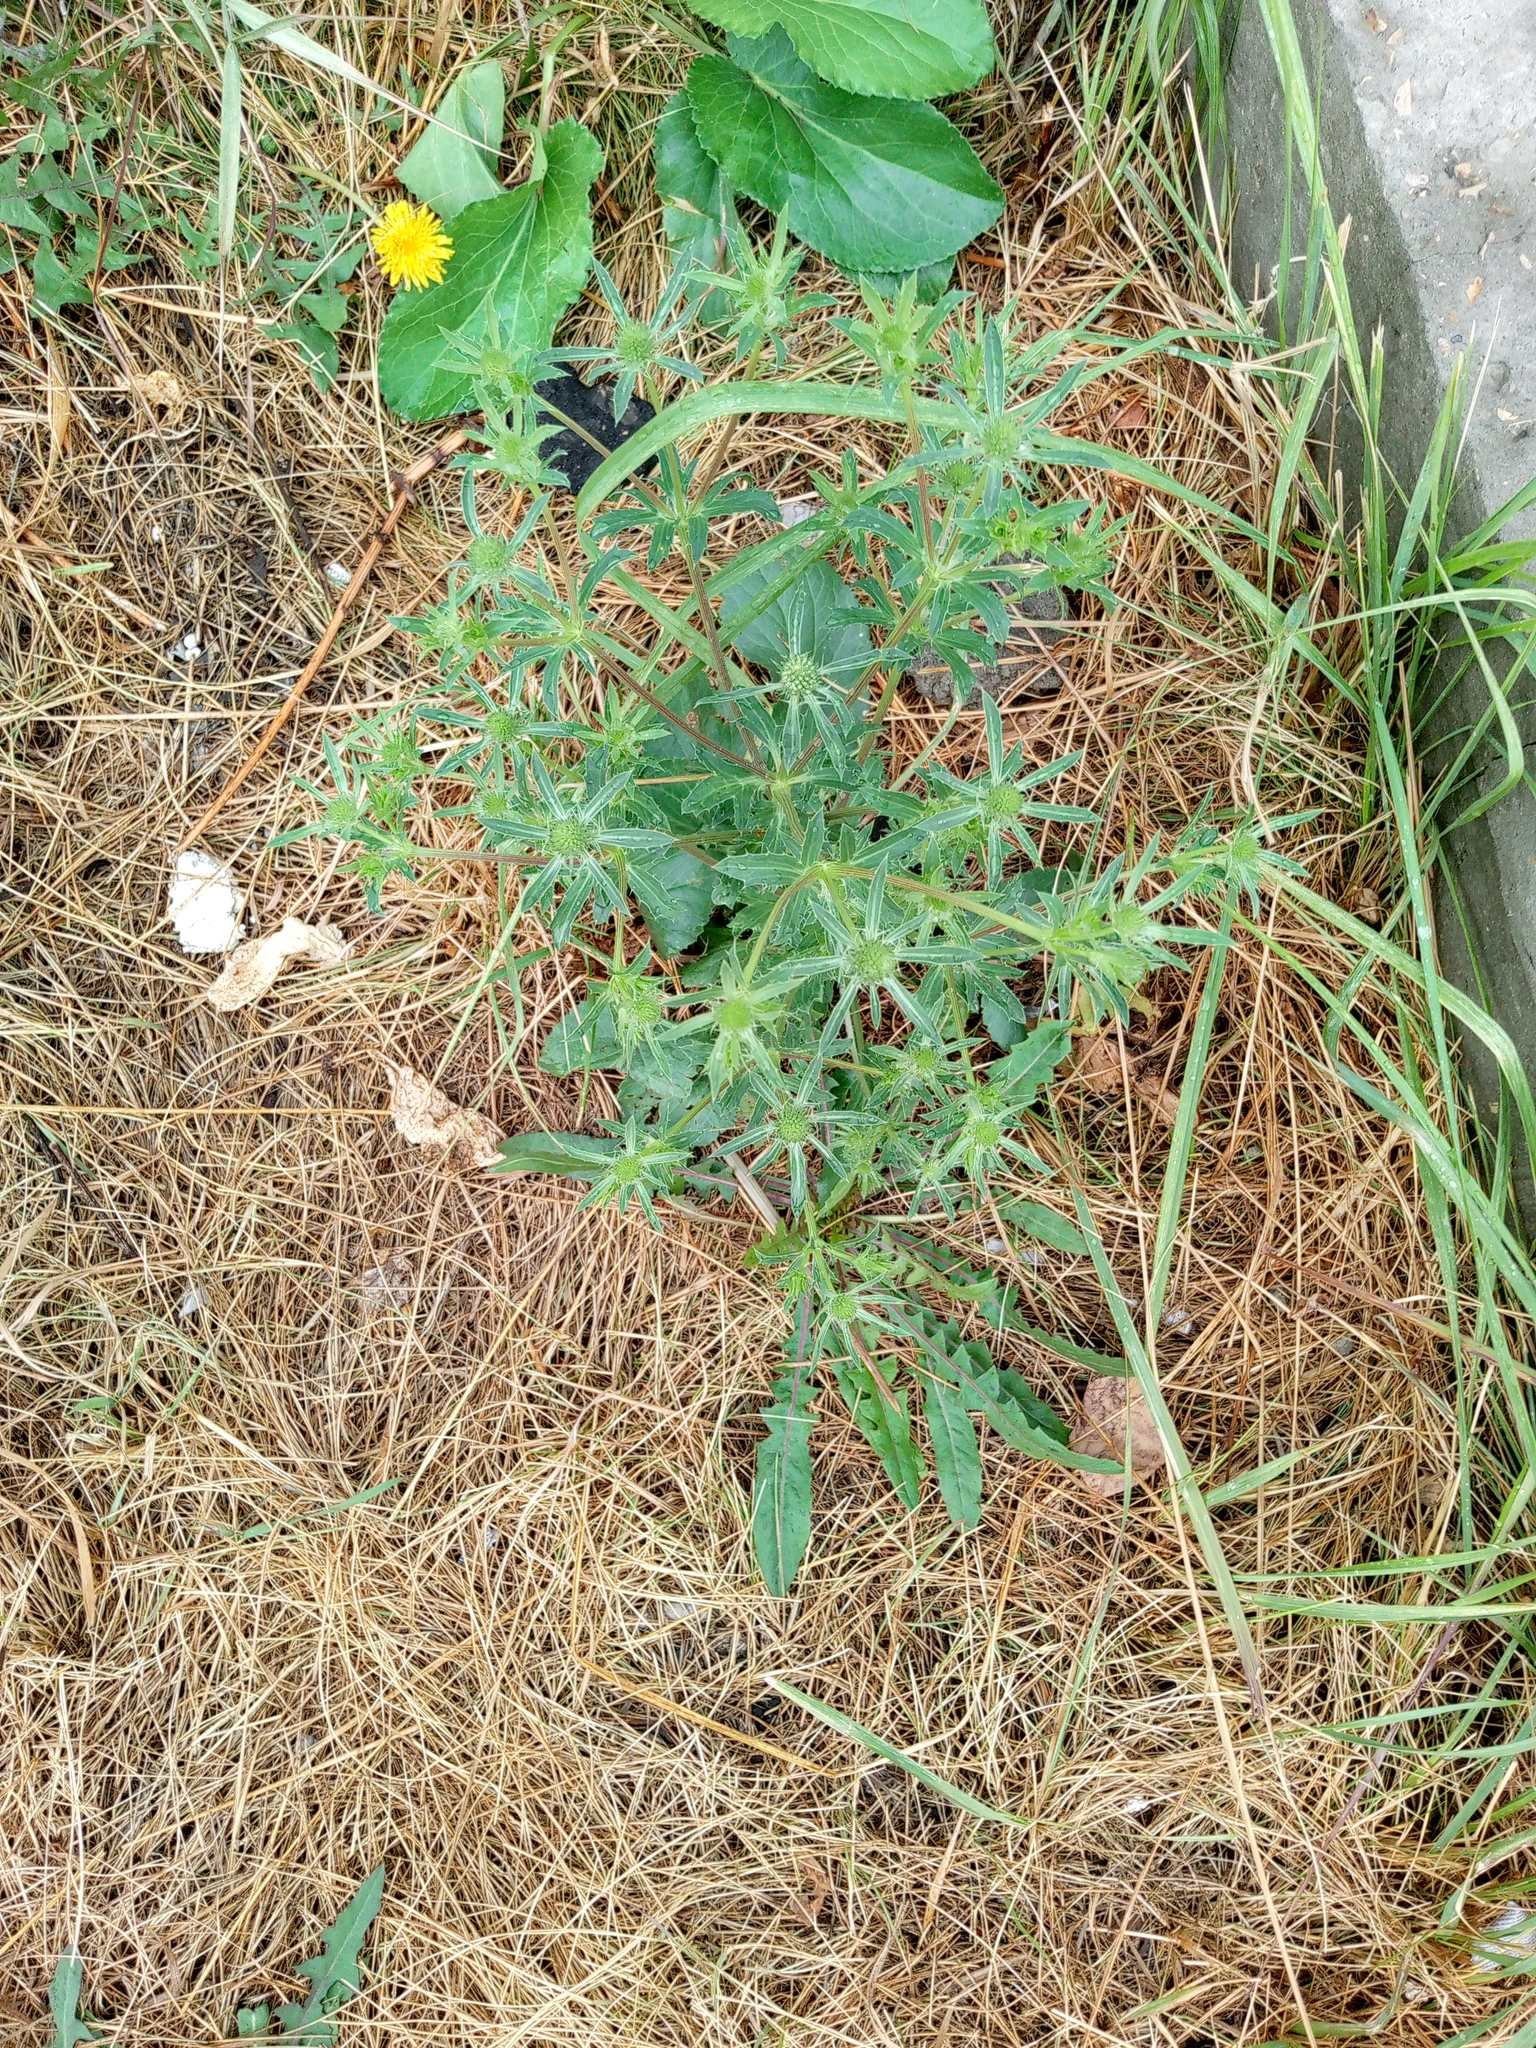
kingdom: Plantae
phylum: Tracheophyta
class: Magnoliopsida
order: Apiales
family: Apiaceae
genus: Eryngium
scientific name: Eryngium planum
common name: Blue eryngo
